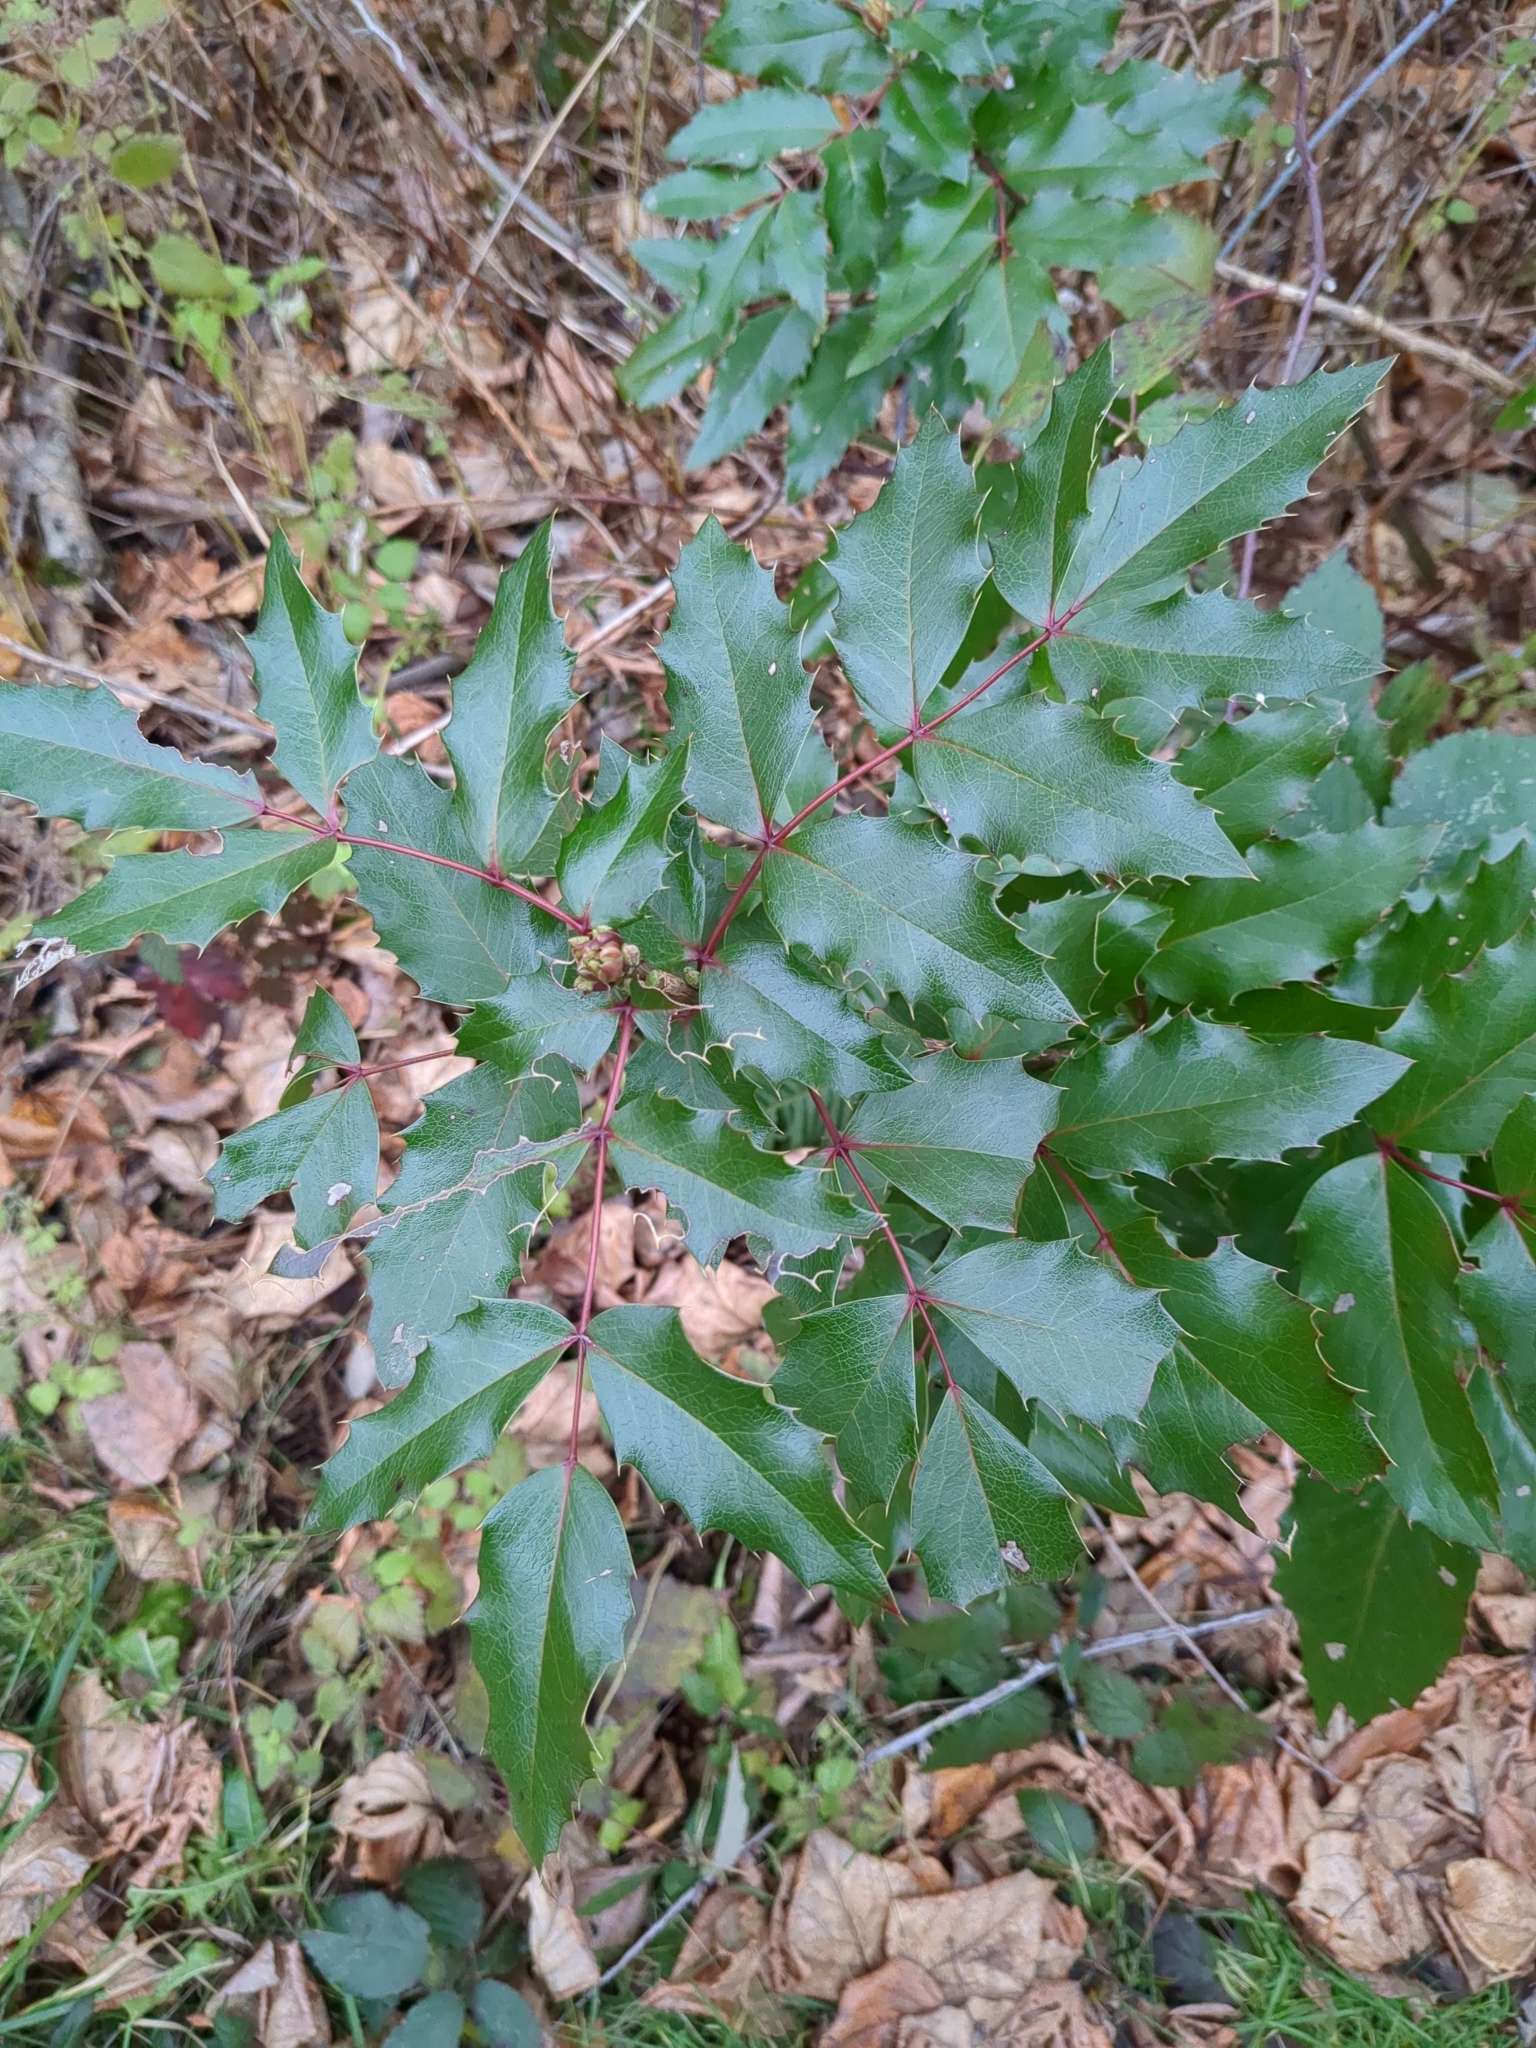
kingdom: Plantae
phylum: Tracheophyta
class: Magnoliopsida
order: Ranunculales
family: Berberidaceae
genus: Mahonia
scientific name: Mahonia aquifolium
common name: Oregon-grape
